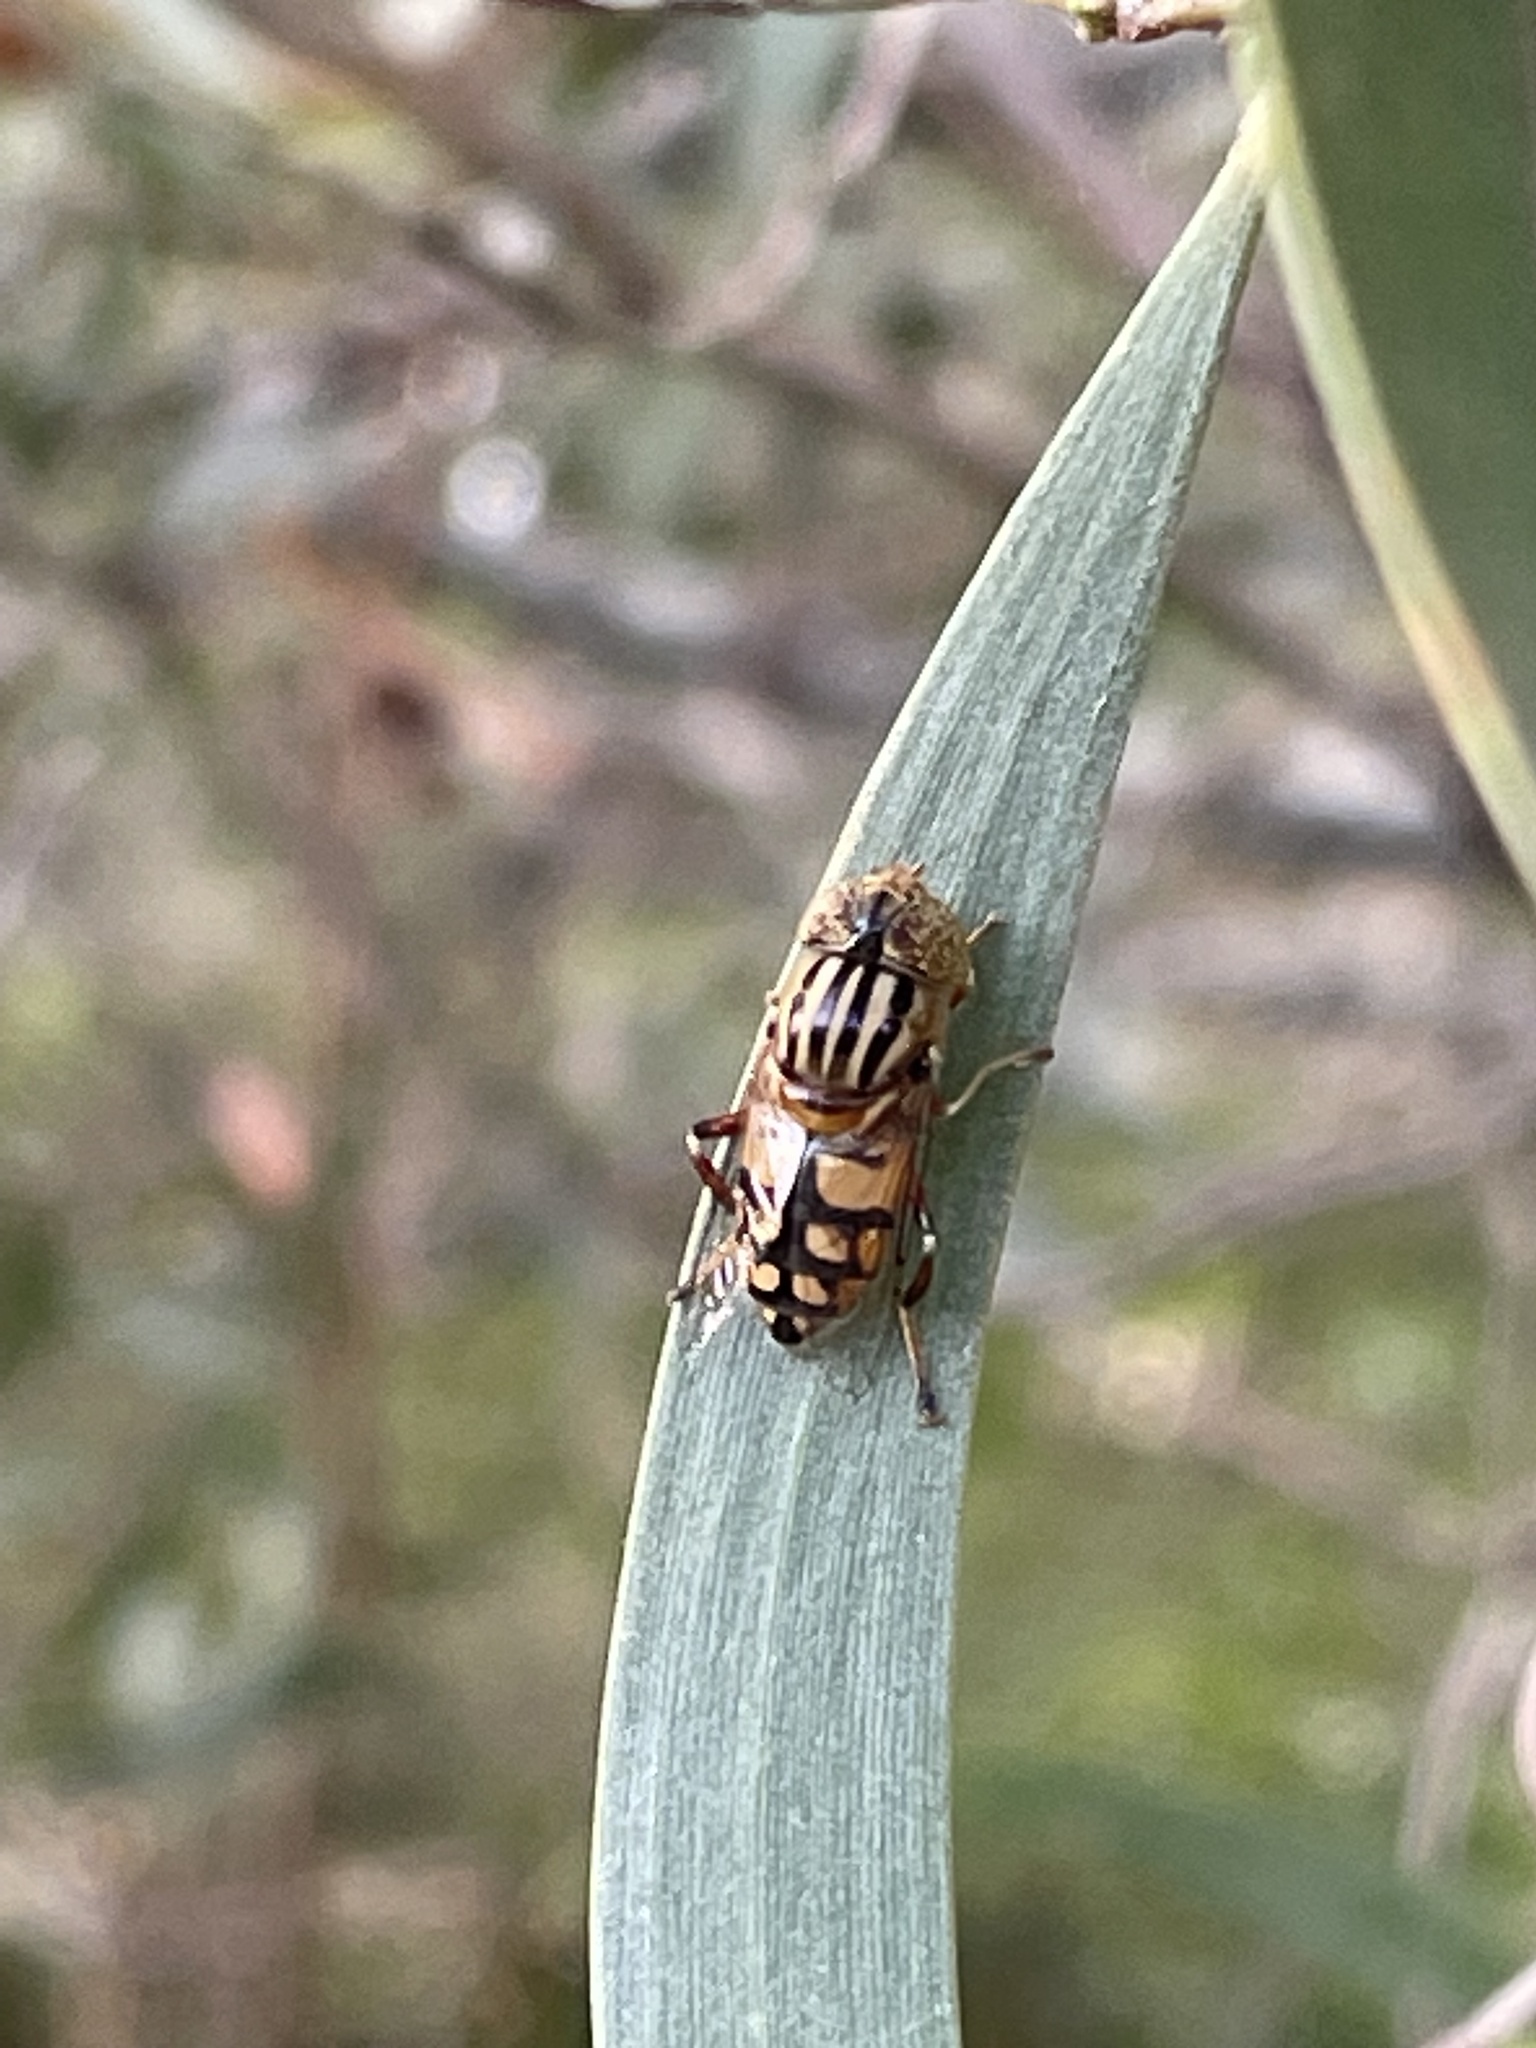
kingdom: Animalia
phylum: Arthropoda
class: Insecta
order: Diptera
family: Syrphidae
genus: Eristalinus
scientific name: Eristalinus punctulatus
